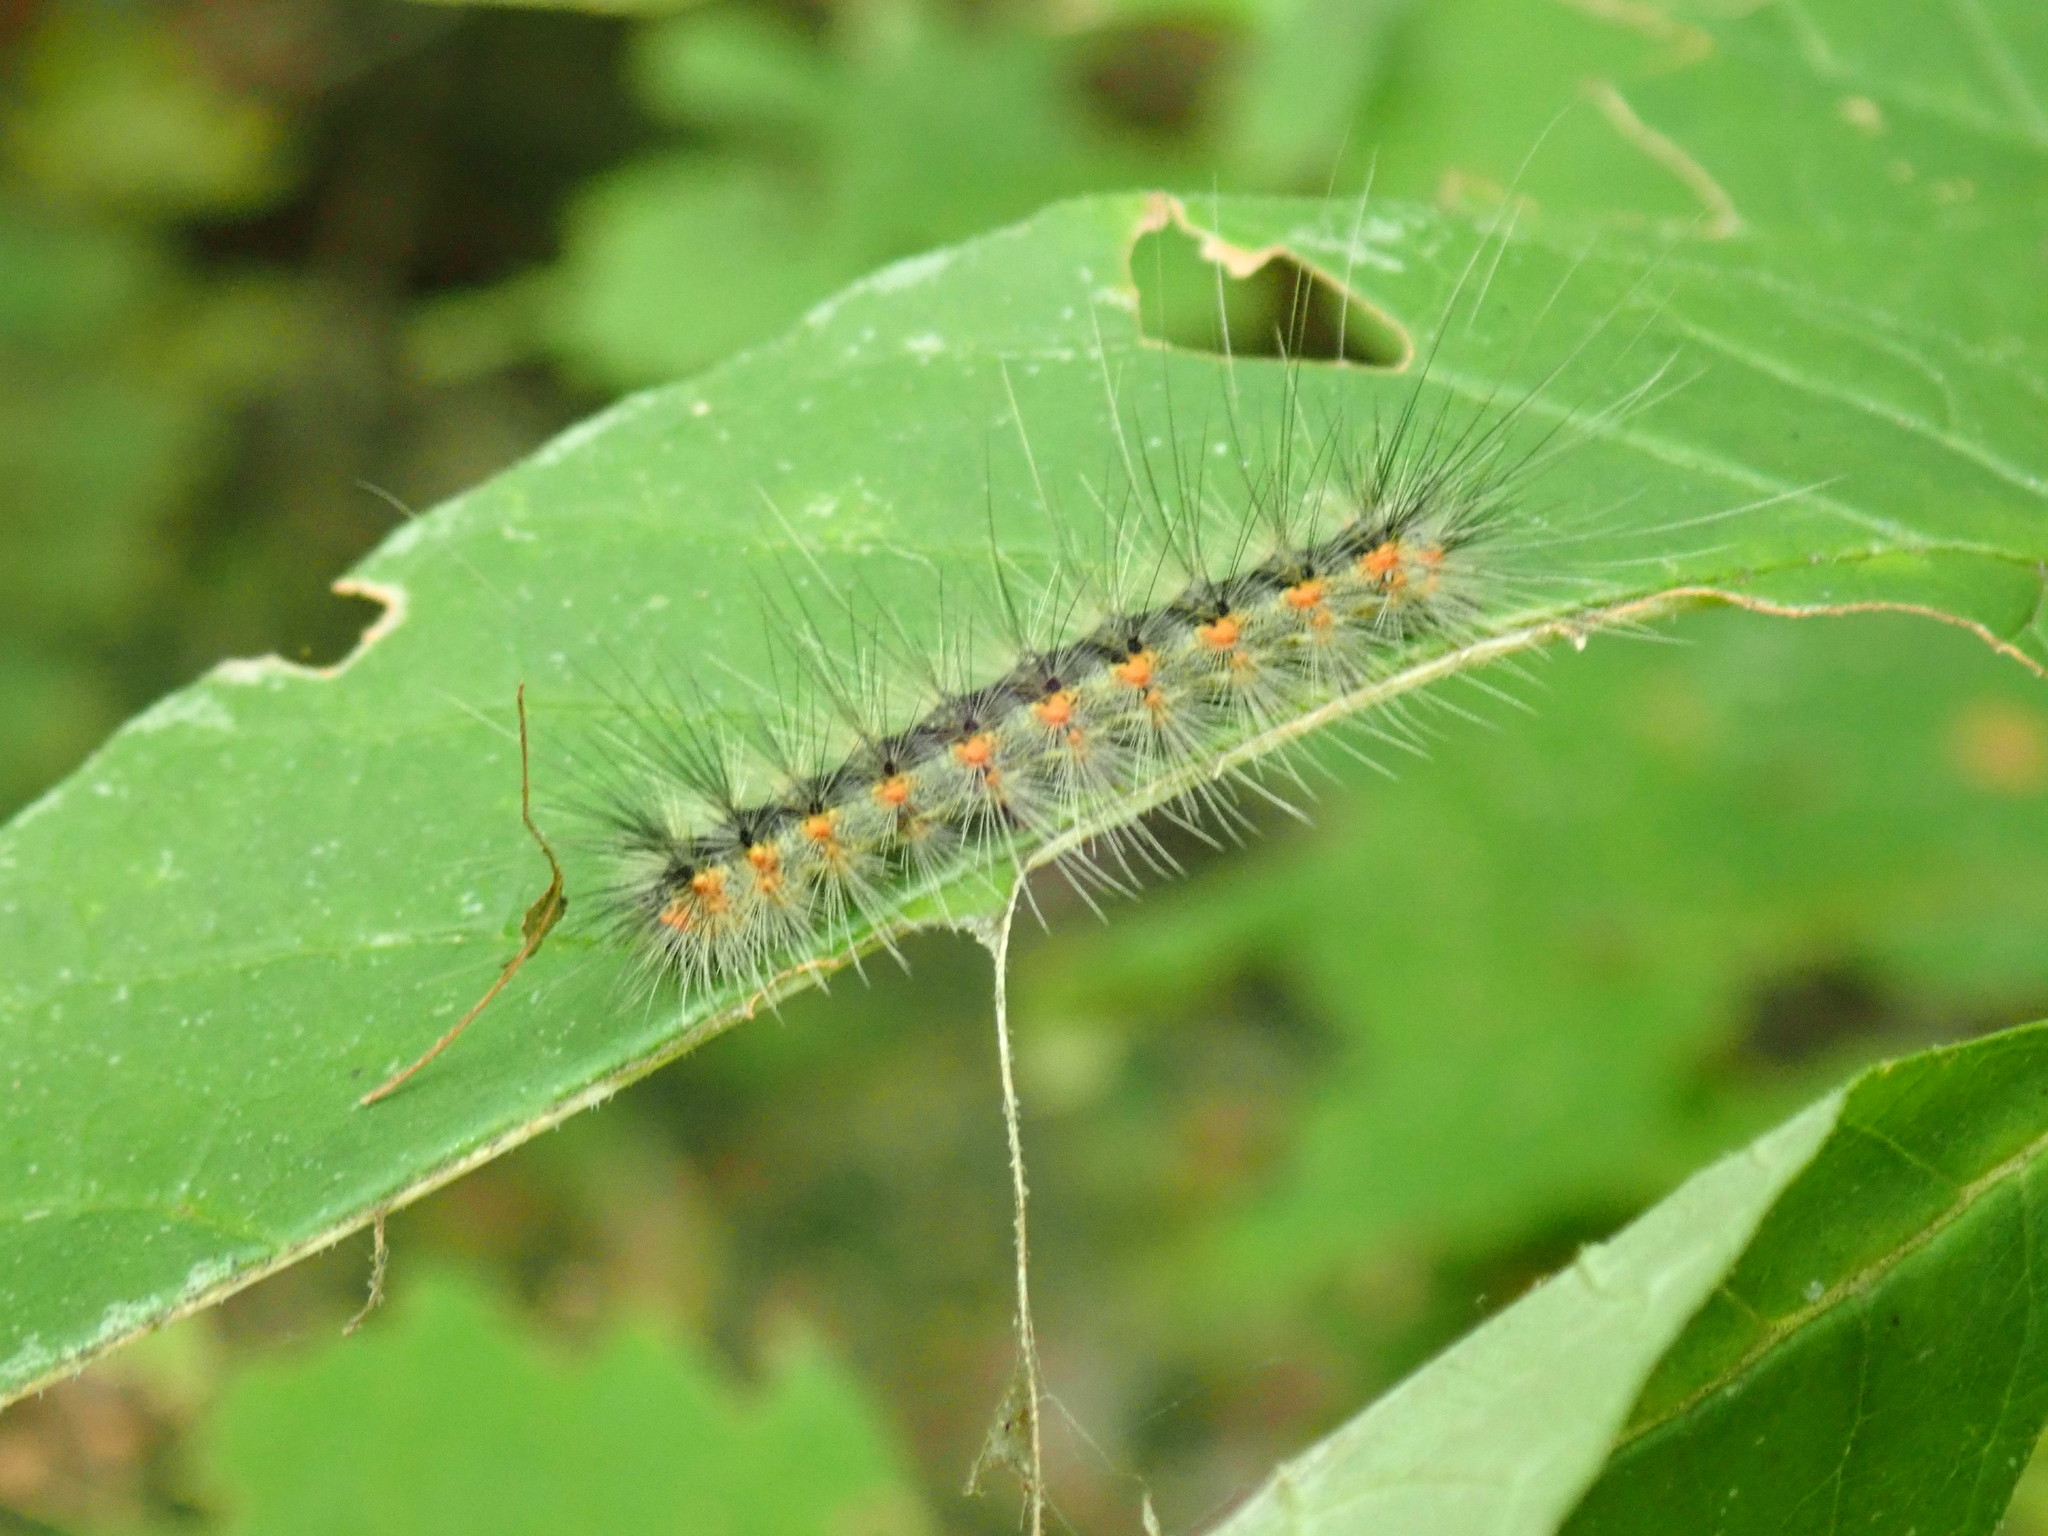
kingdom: Animalia
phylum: Arthropoda
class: Insecta
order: Lepidoptera
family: Erebidae
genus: Hyphantria
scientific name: Hyphantria cunea
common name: American white moth
